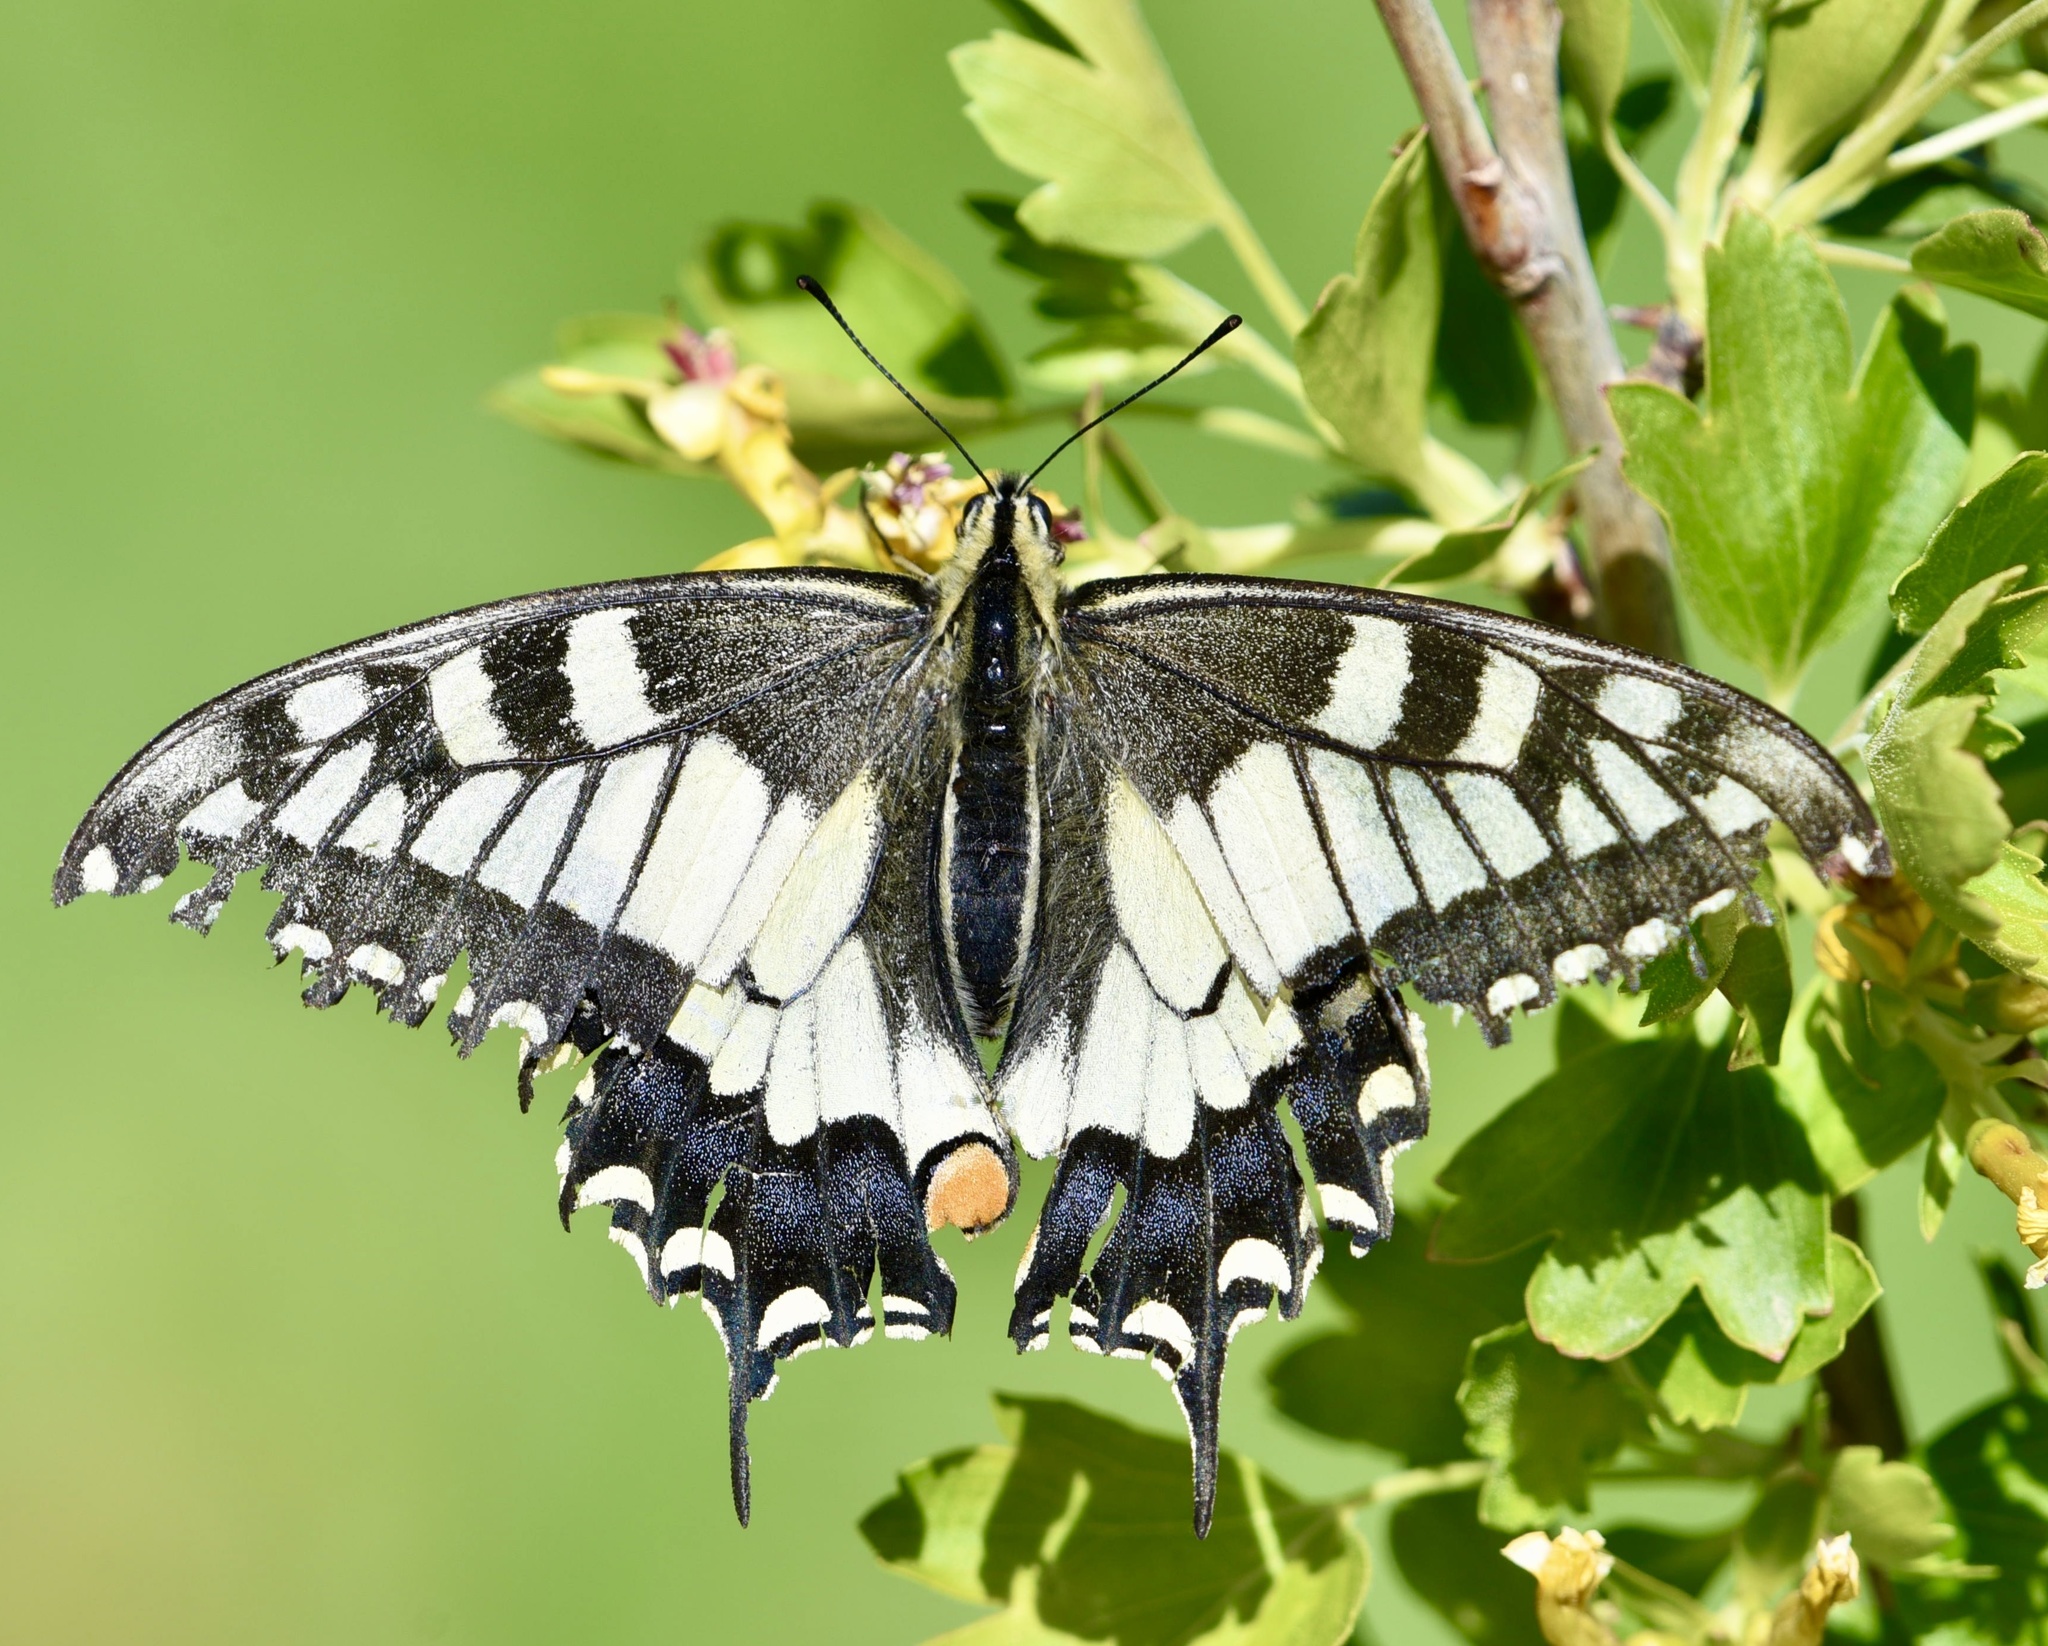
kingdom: Animalia
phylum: Arthropoda
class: Insecta
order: Lepidoptera
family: Papilionidae
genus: Papilio
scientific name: Papilio machaon
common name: Swallowtail
